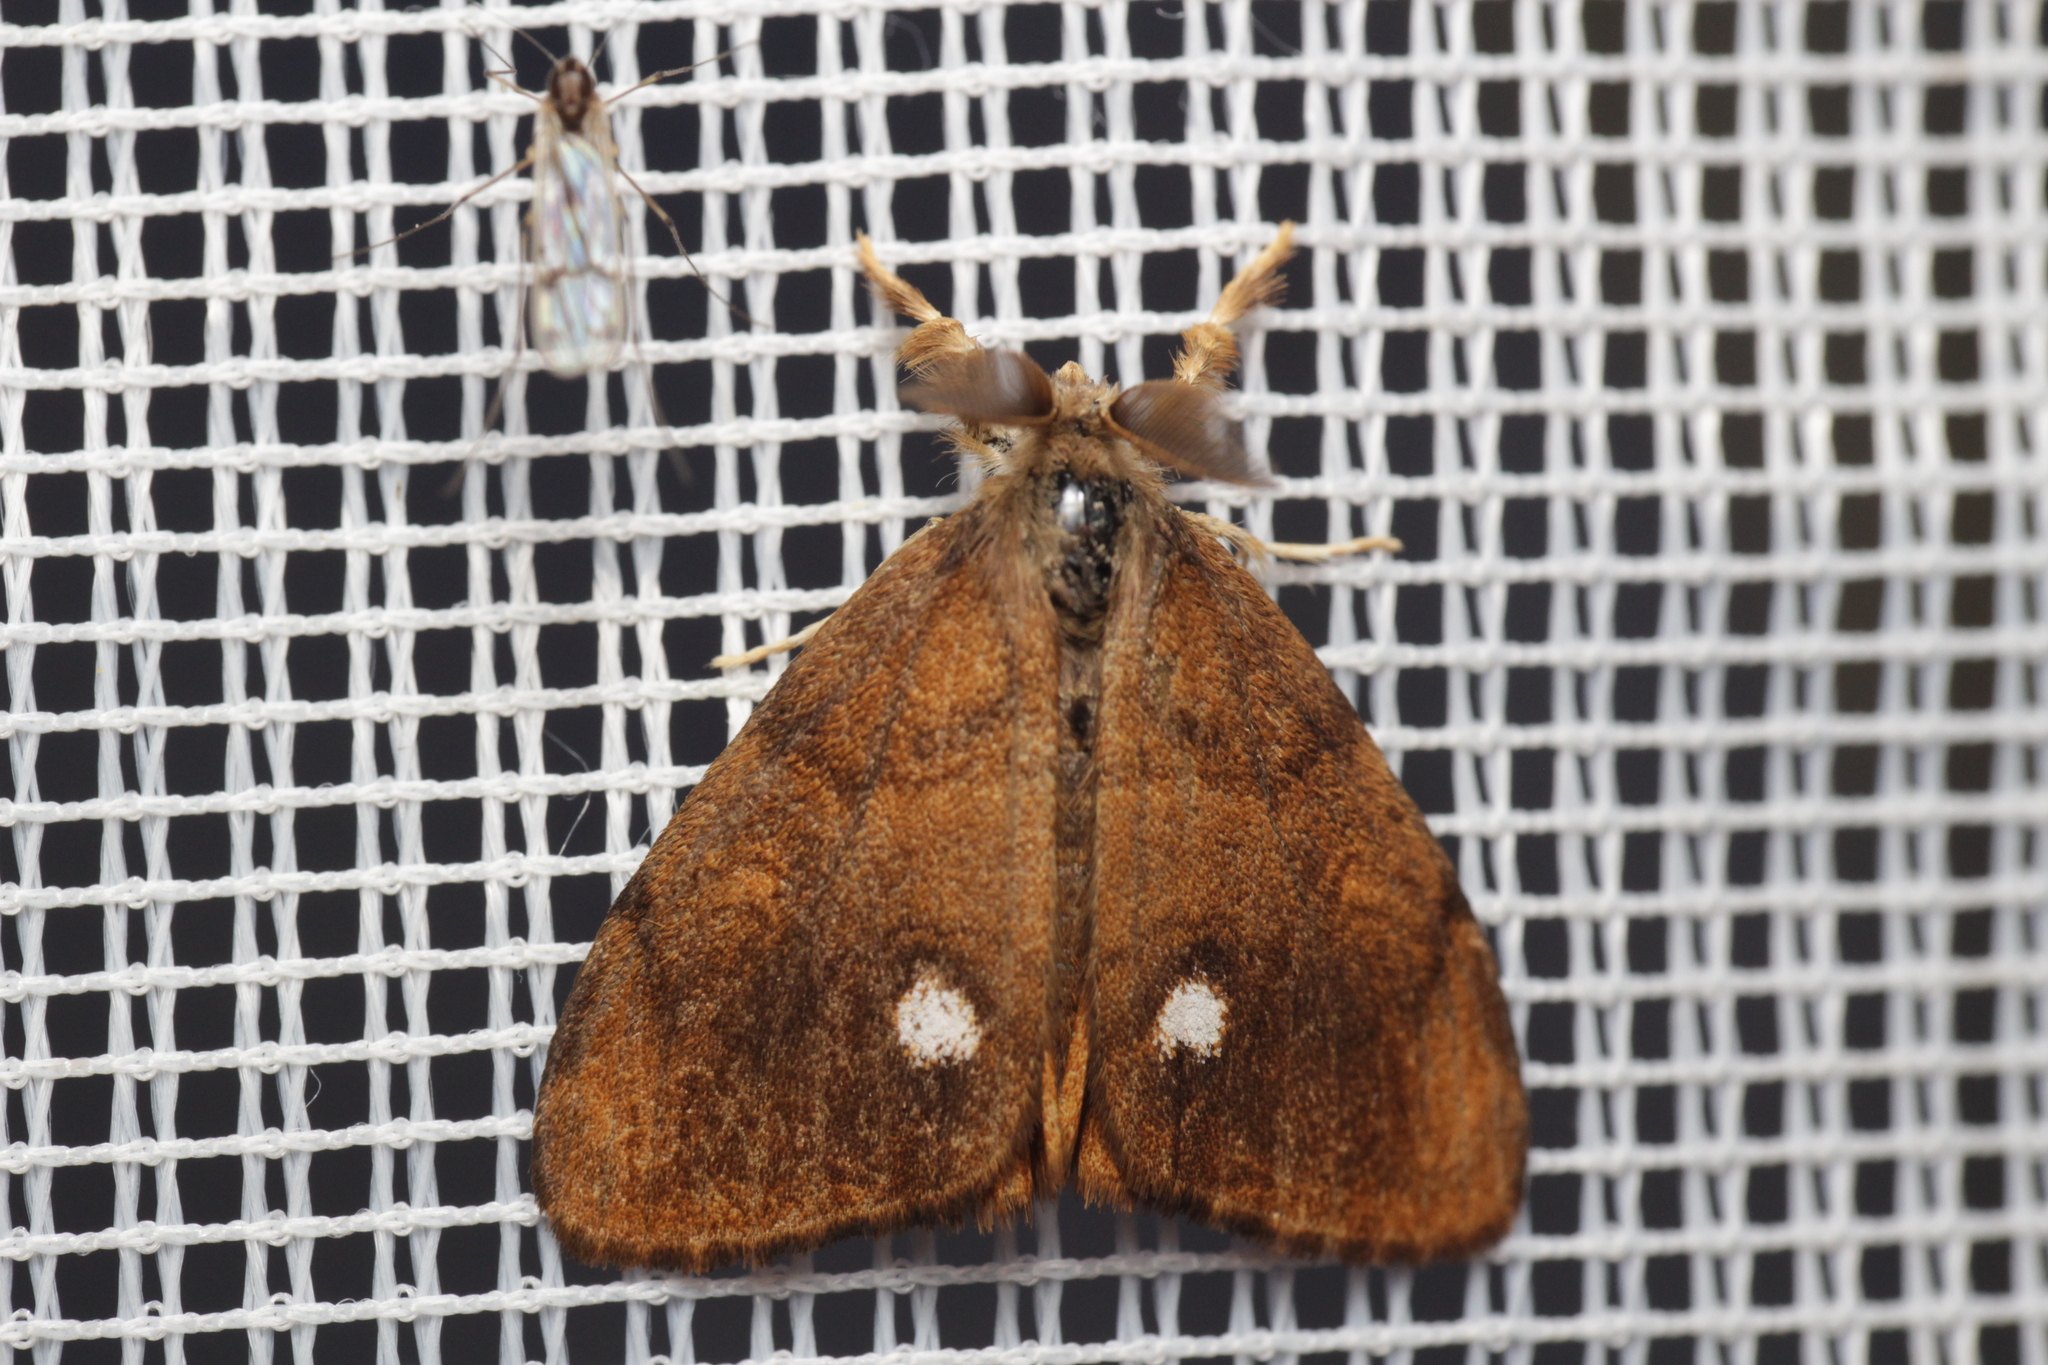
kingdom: Animalia
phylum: Arthropoda
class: Insecta
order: Lepidoptera
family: Erebidae
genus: Orgyia
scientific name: Orgyia antiqua
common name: Vapourer
